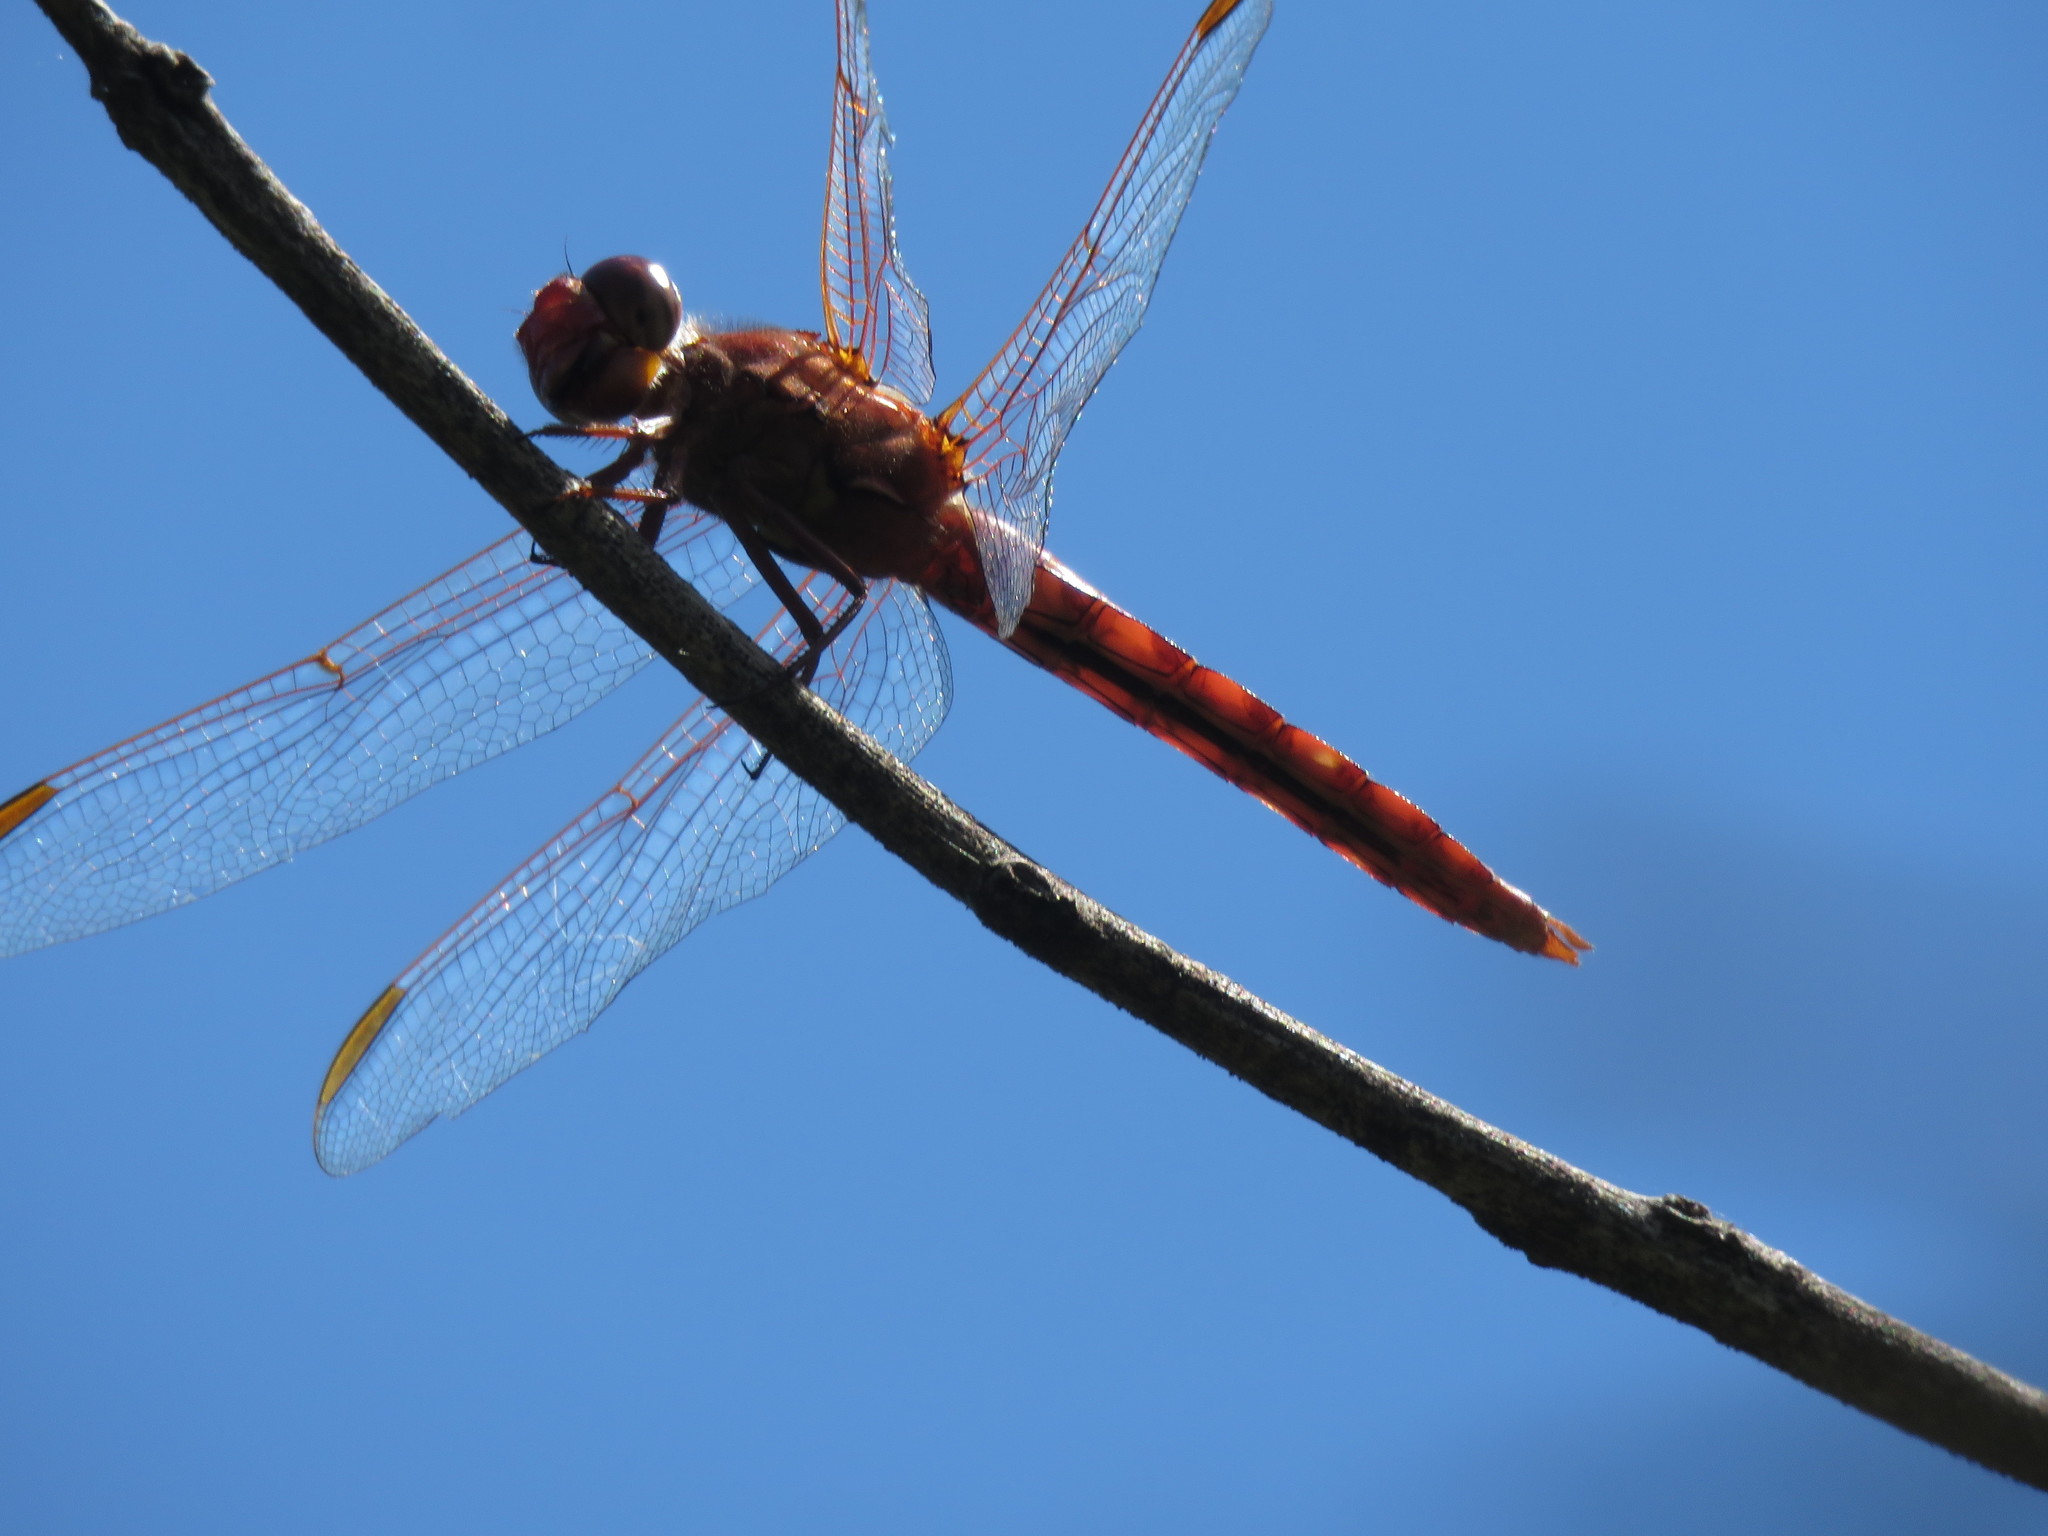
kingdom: Animalia
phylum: Arthropoda
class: Insecta
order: Odonata
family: Libellulidae
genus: Orthemis
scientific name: Orthemis nodiplaga
